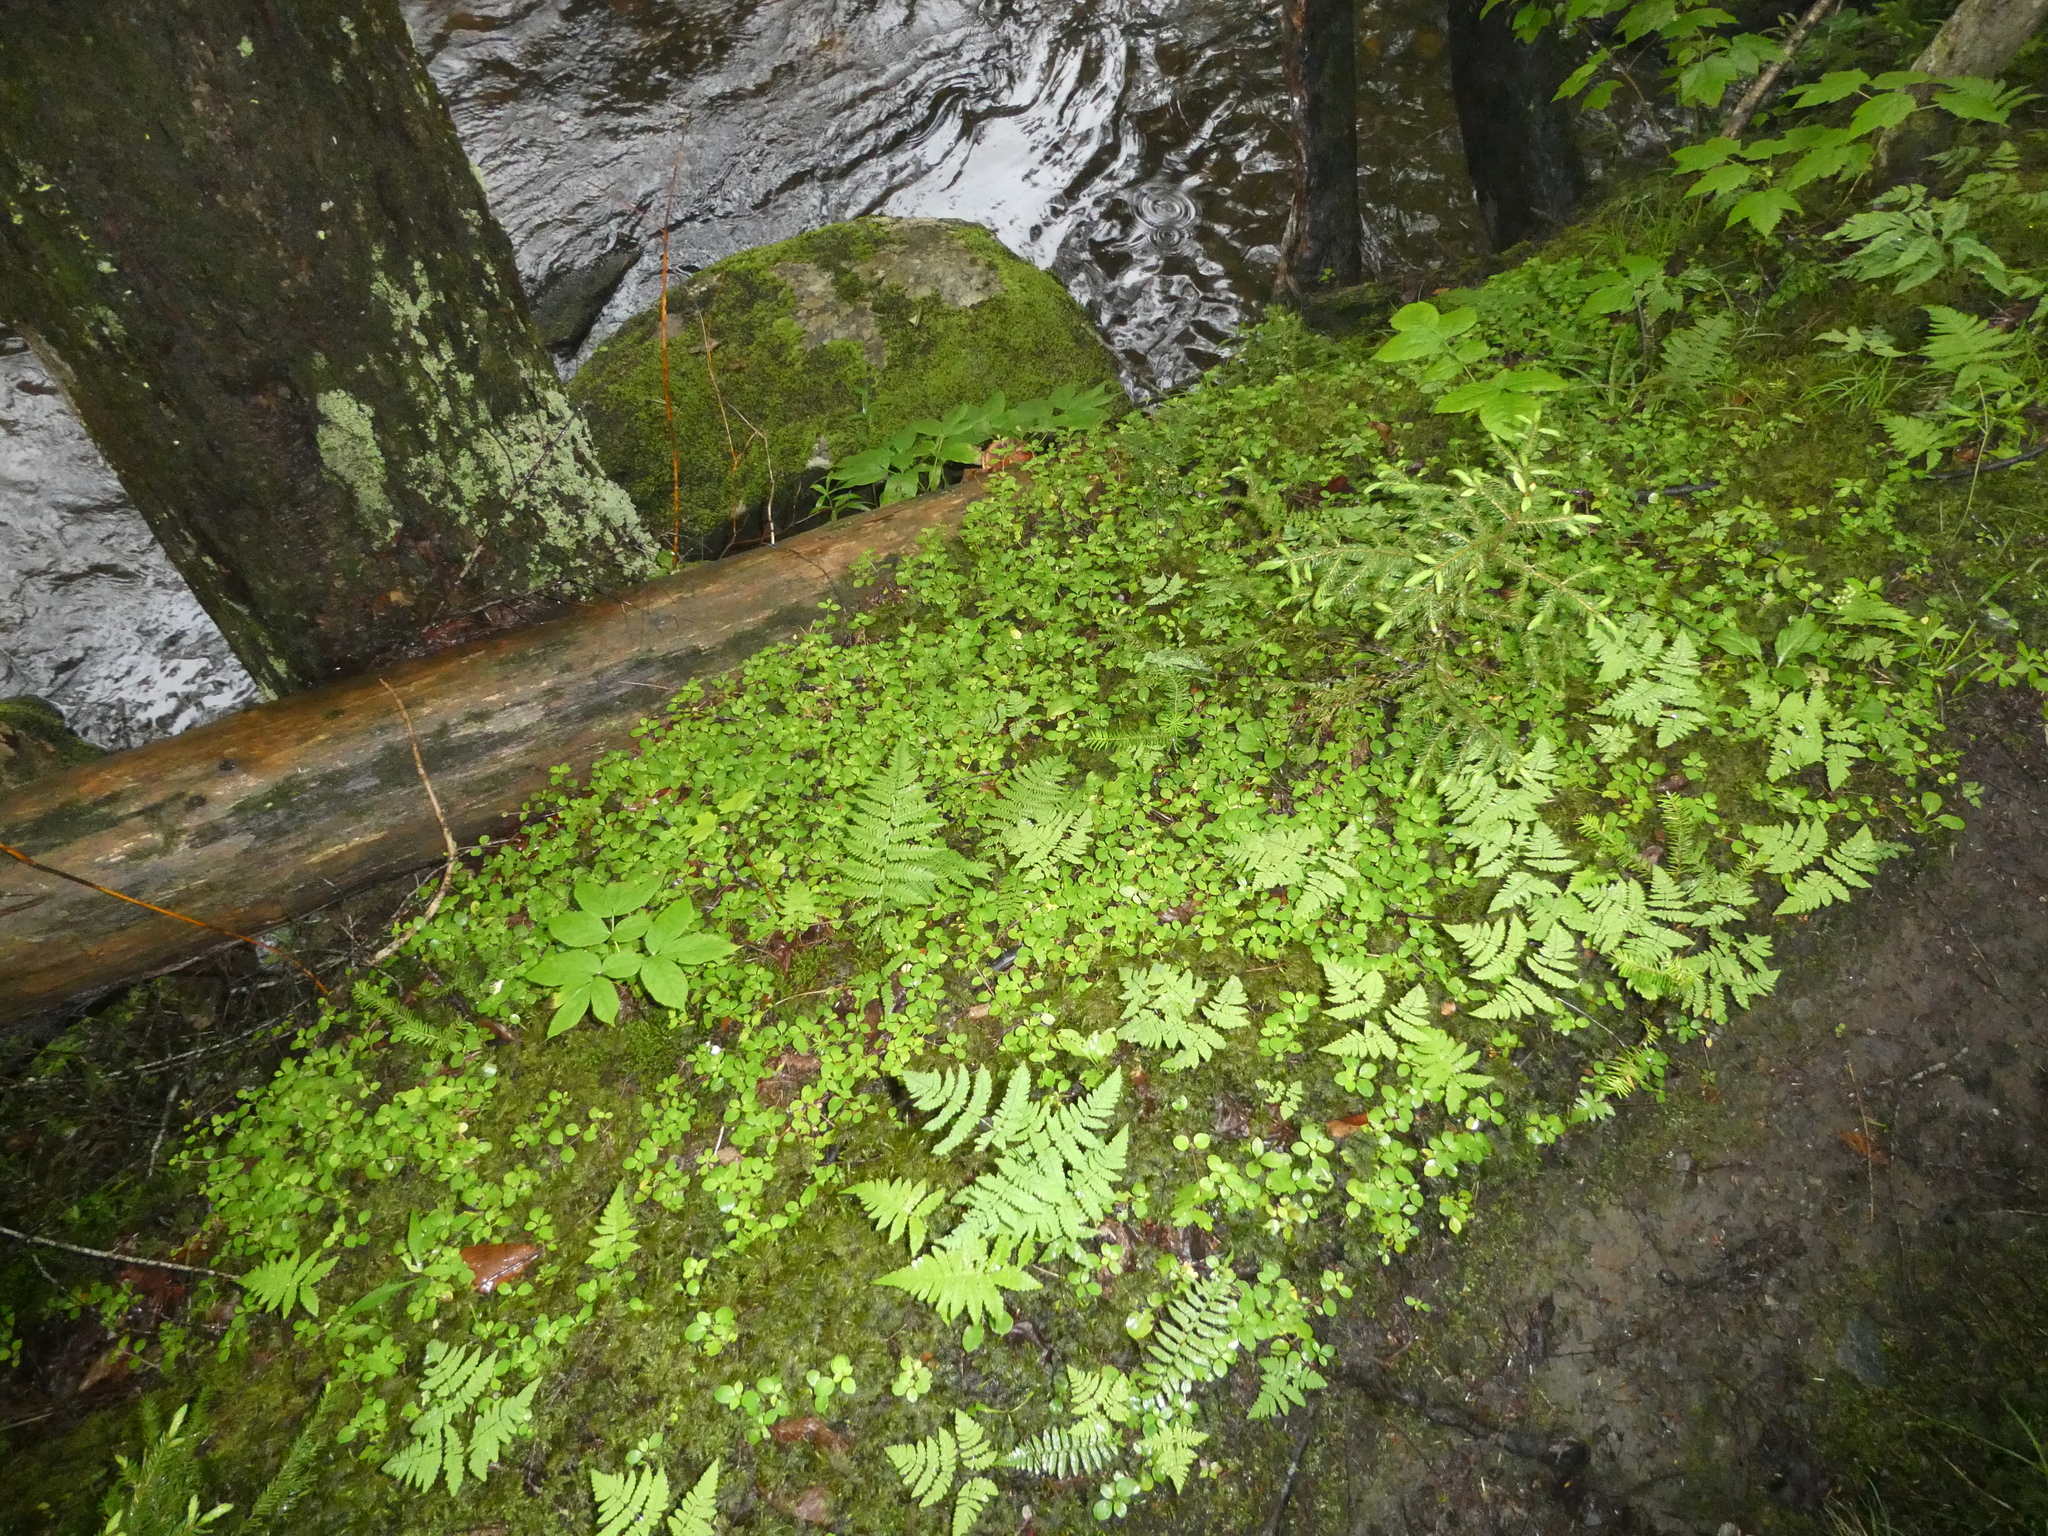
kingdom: Plantae
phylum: Tracheophyta
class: Magnoliopsida
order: Dipsacales
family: Caprifoliaceae
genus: Linnaea
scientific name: Linnaea borealis
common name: Twinflower
